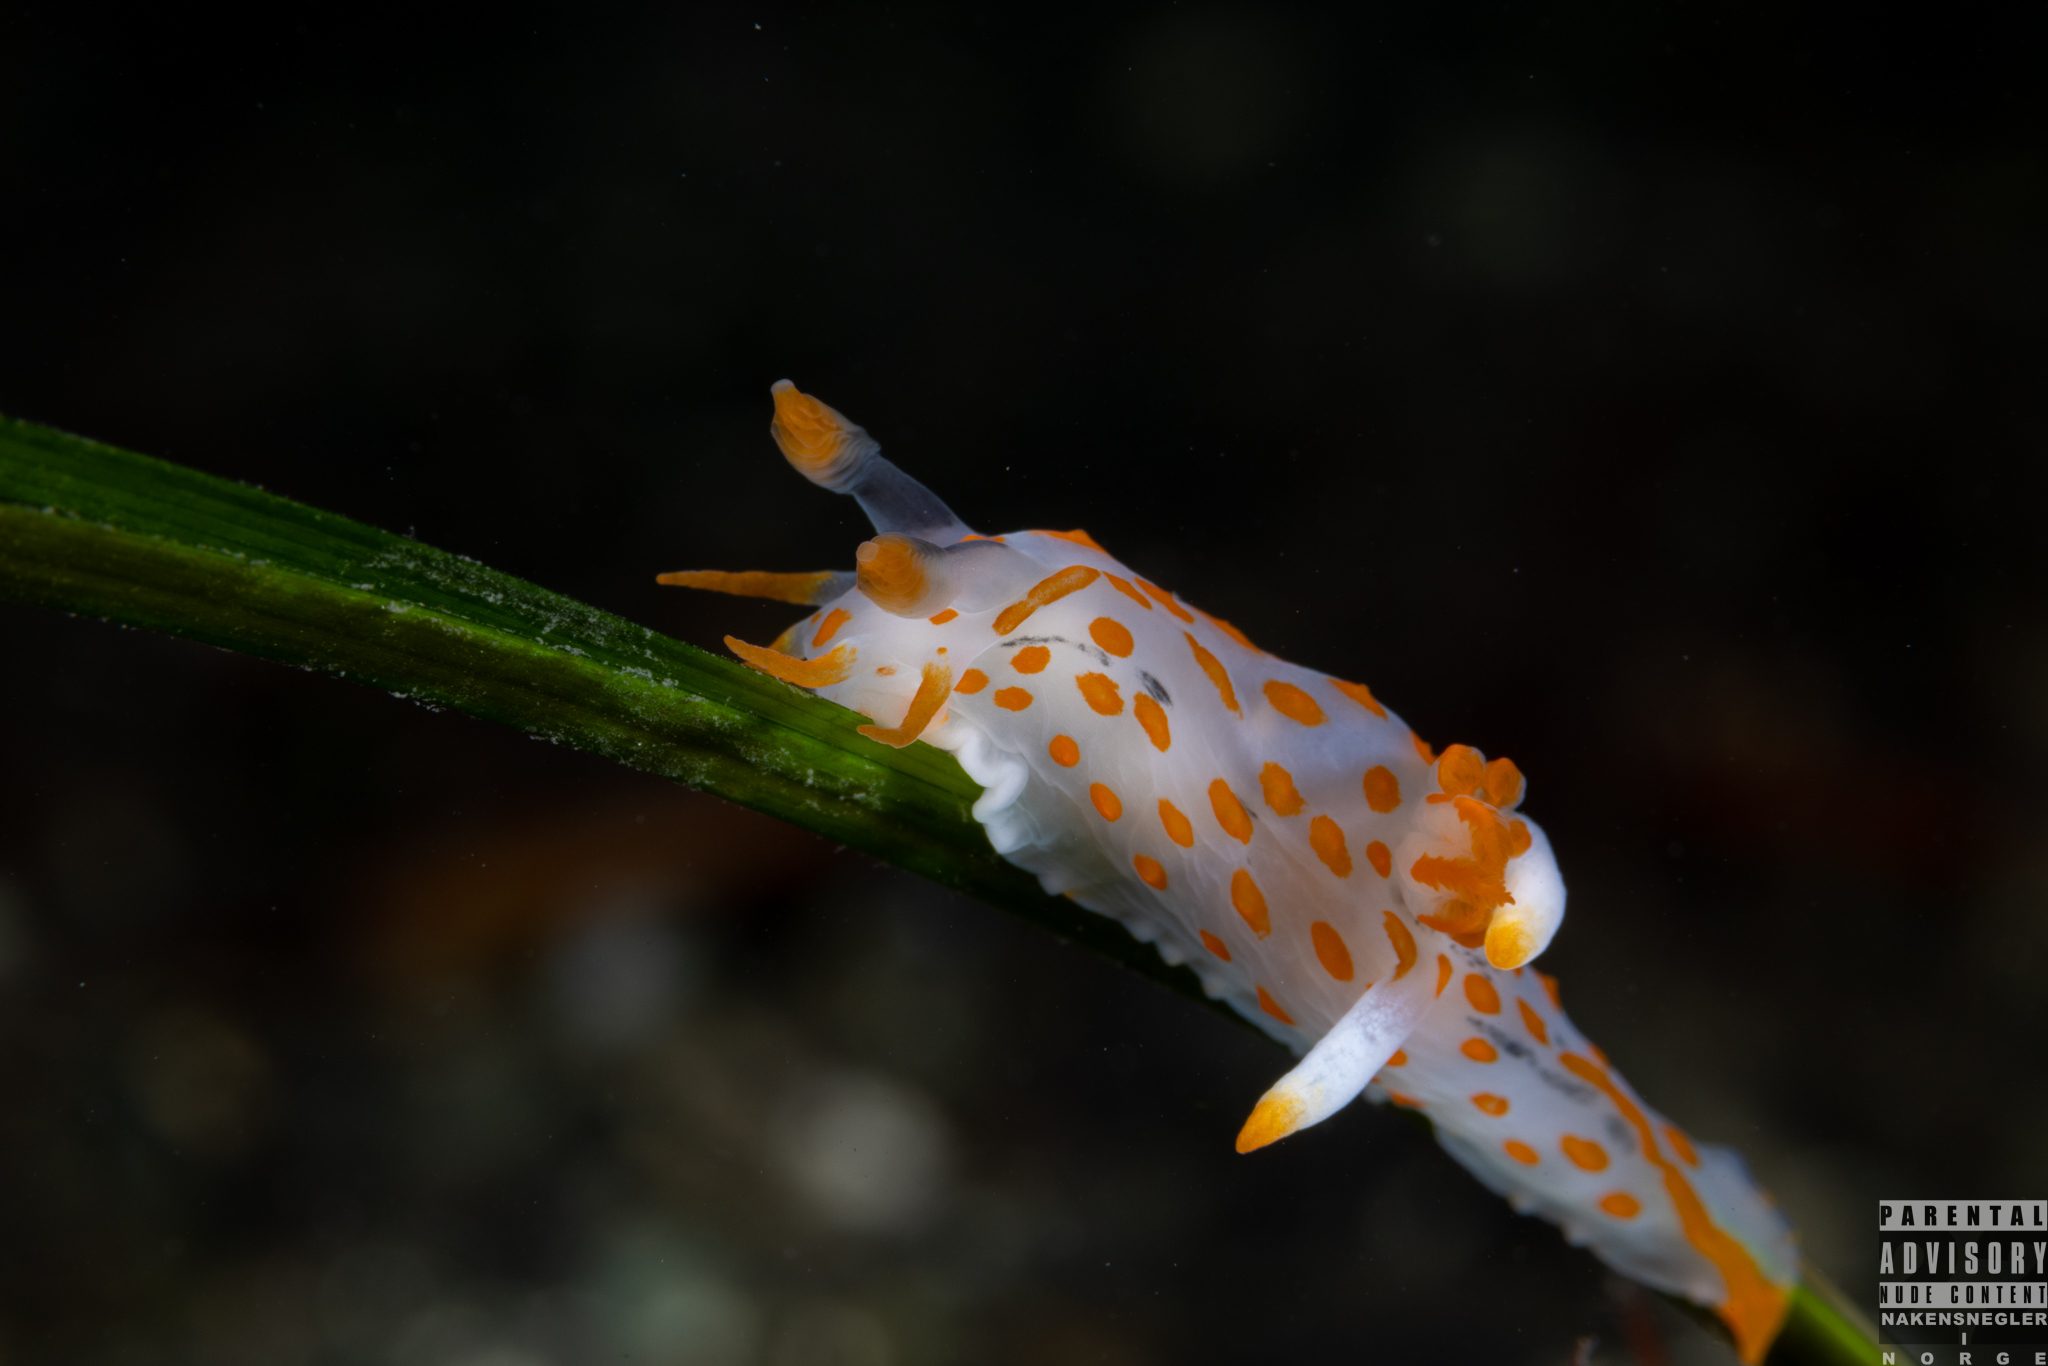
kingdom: Animalia
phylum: Mollusca
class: Gastropoda
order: Nudibranchia
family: Polyceridae
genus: Polycera
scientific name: Polycera quadrilineata
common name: Four-striped polycera
